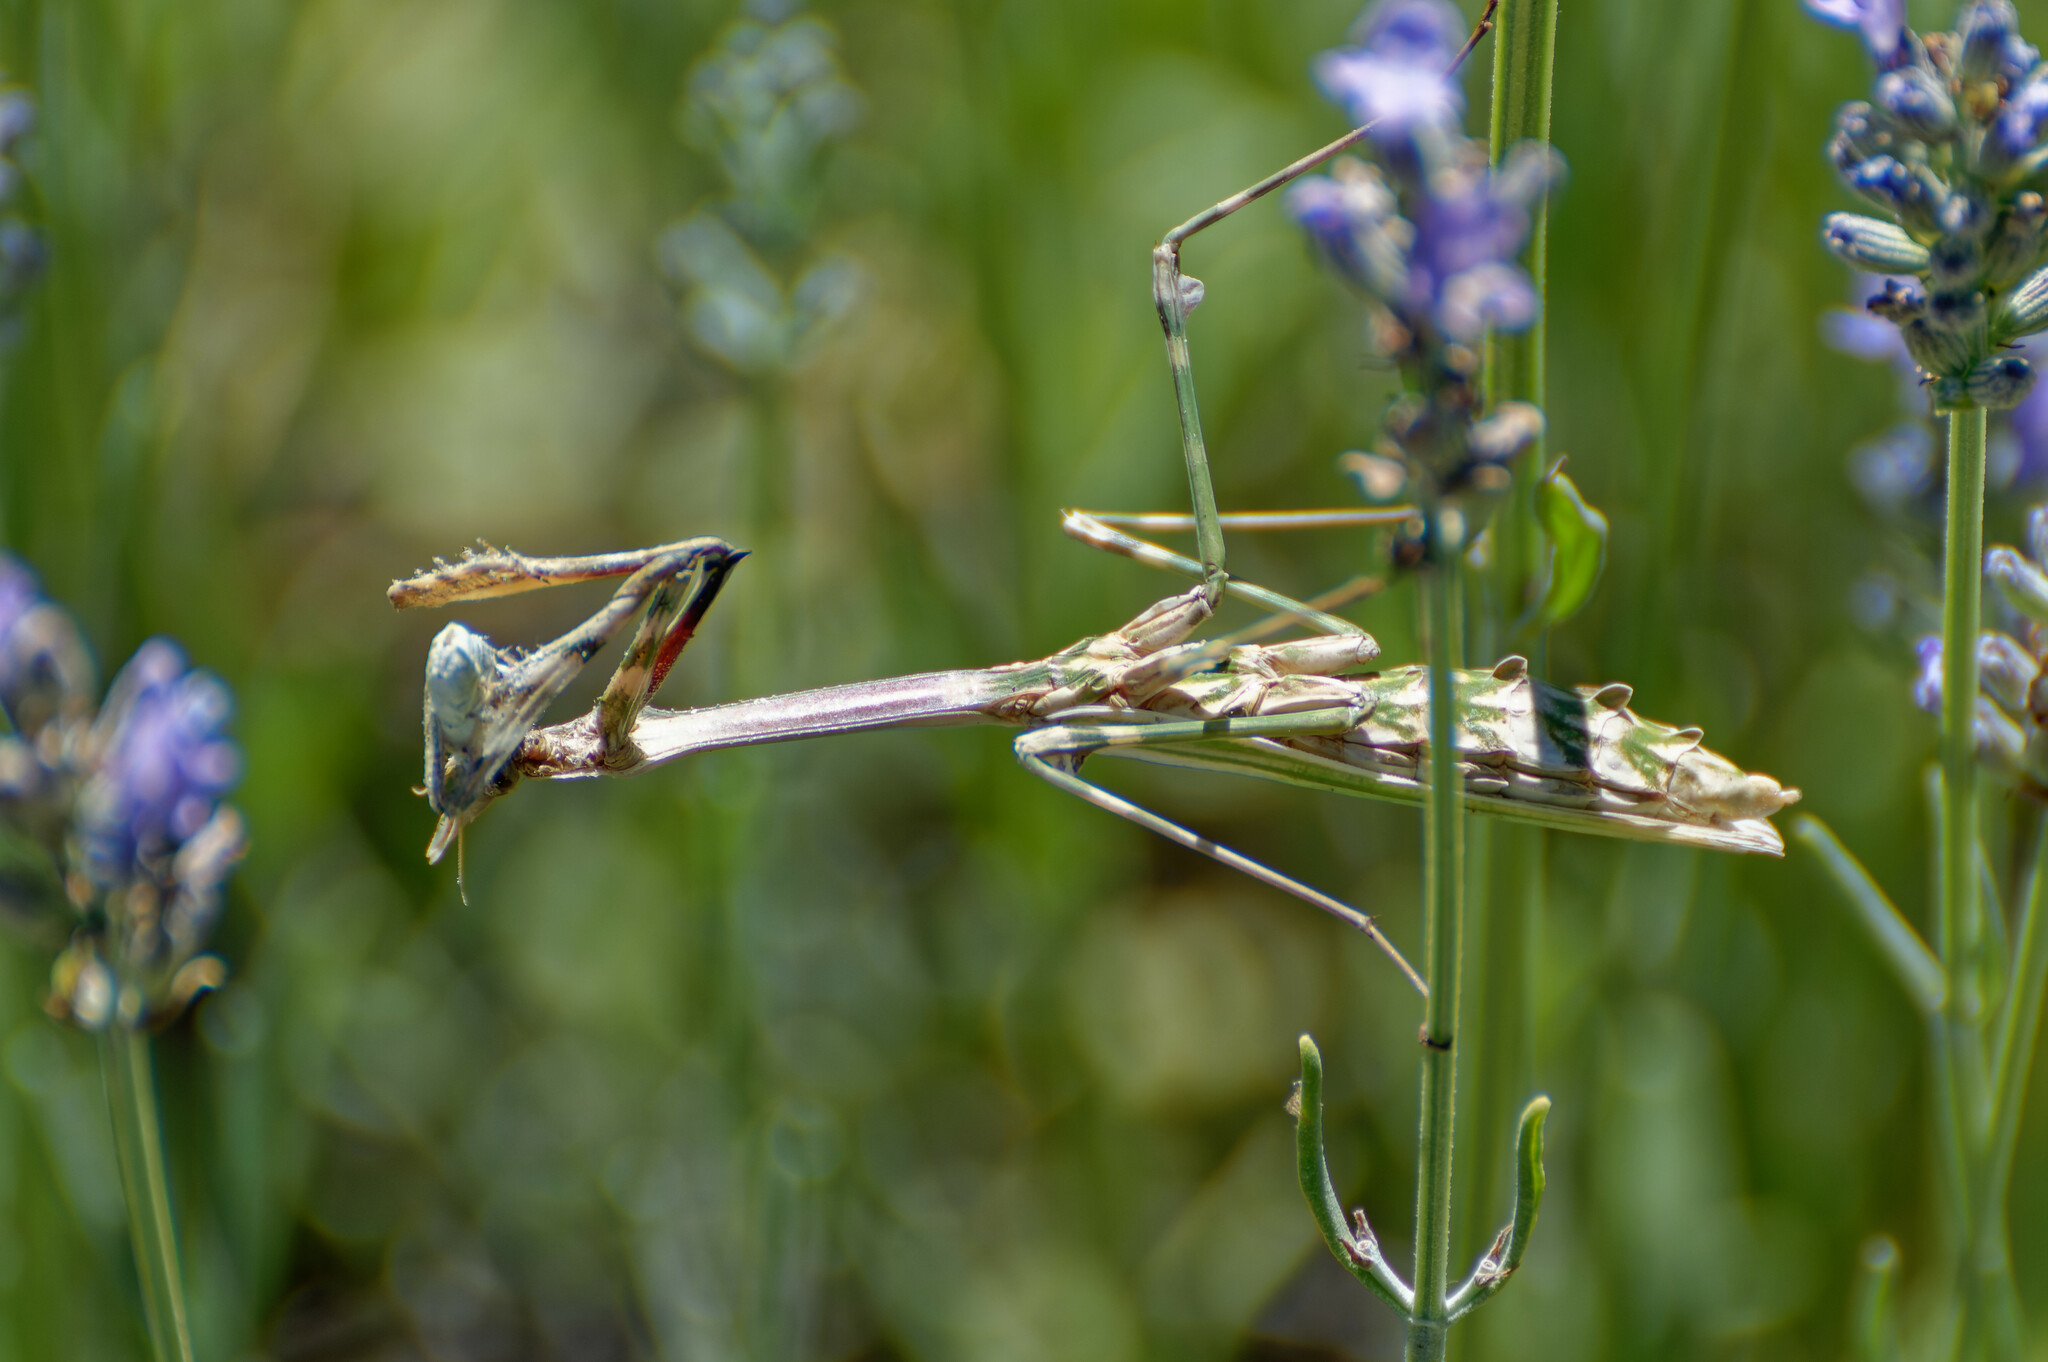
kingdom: Animalia
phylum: Arthropoda
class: Insecta
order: Mantodea
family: Empusidae
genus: Empusa
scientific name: Empusa pennata
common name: Conehead mantis
